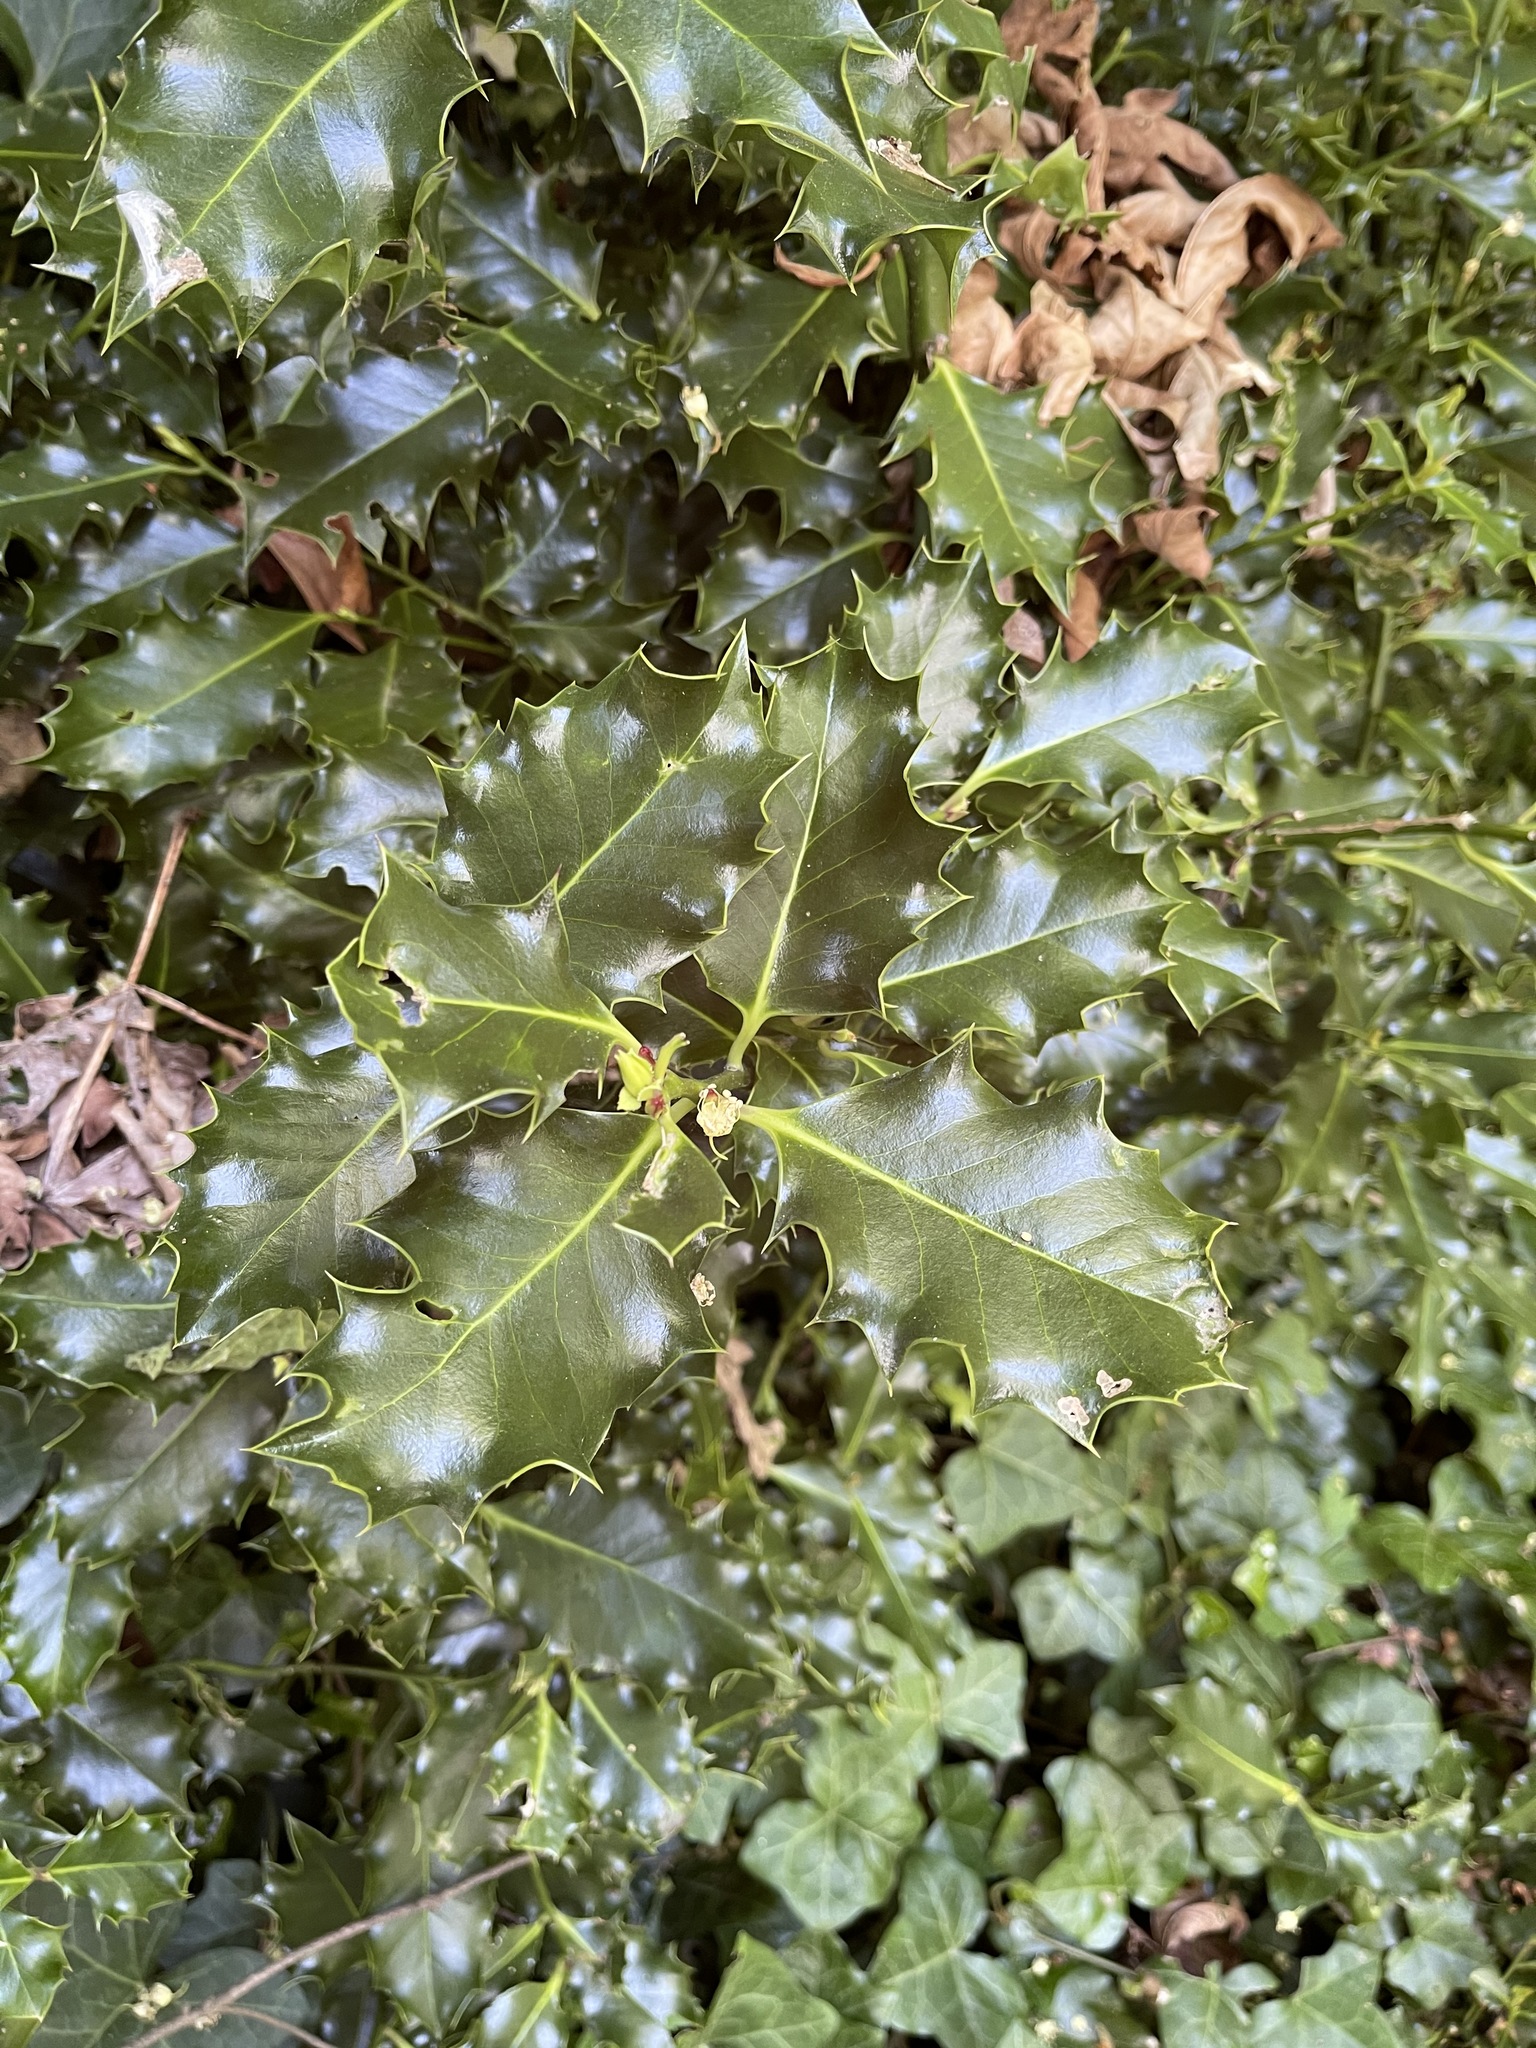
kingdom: Plantae
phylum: Tracheophyta
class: Magnoliopsida
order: Aquifoliales
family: Aquifoliaceae
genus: Ilex
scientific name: Ilex aquifolium
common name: English holly
